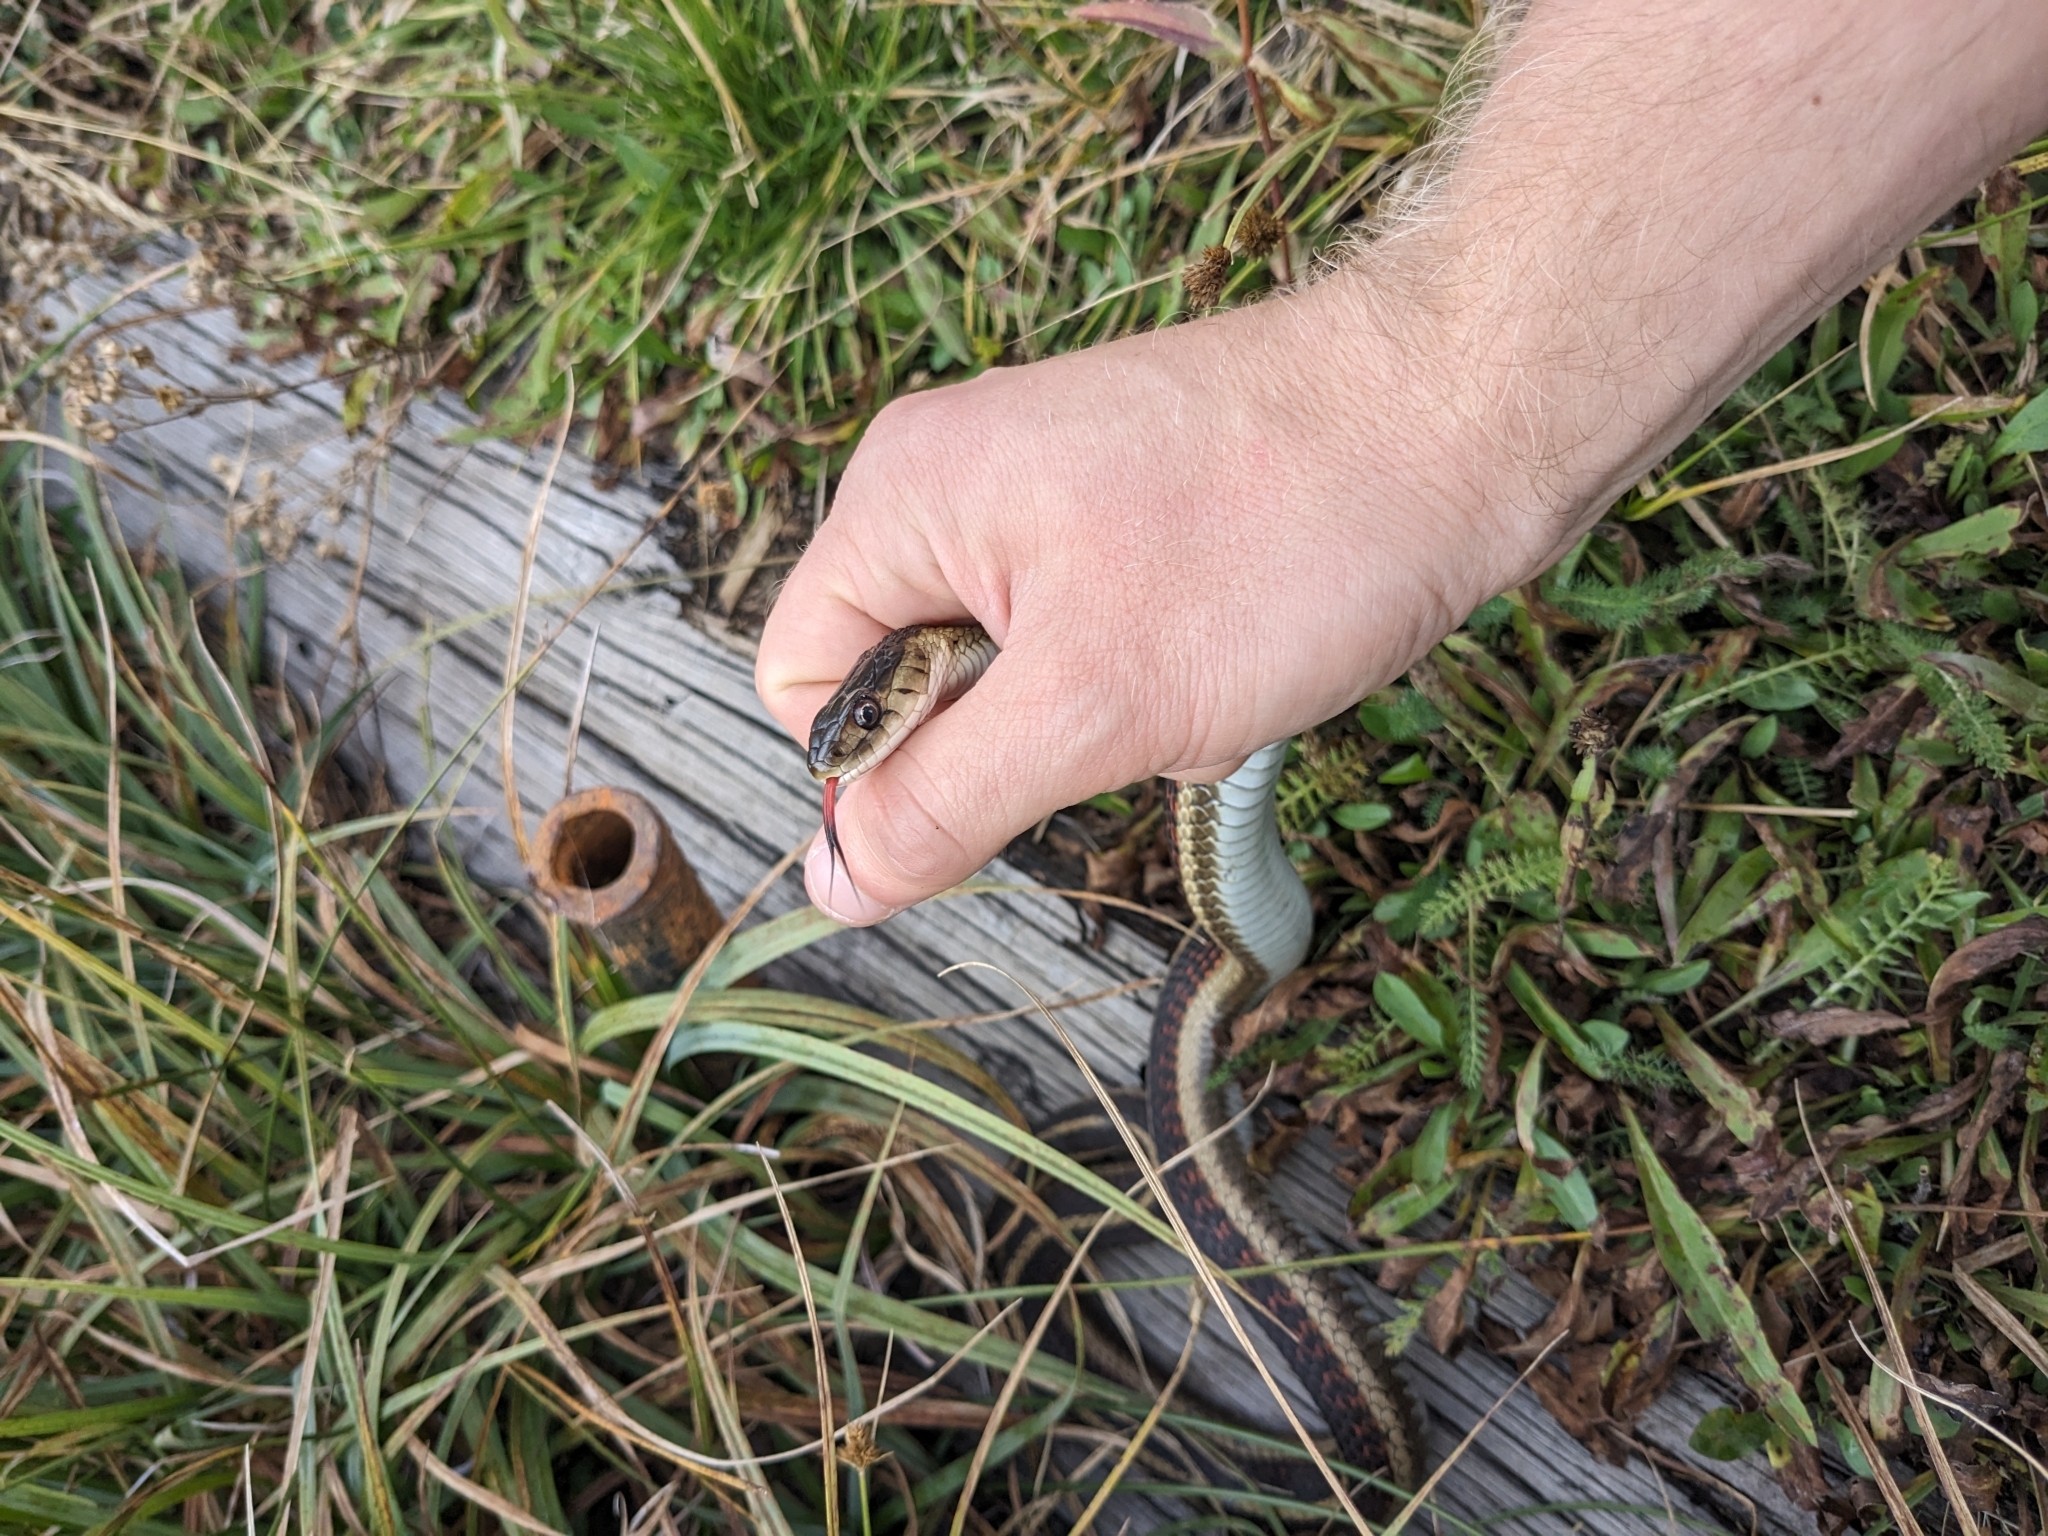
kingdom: Animalia
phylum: Chordata
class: Squamata
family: Colubridae
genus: Thamnophis
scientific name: Thamnophis sirtalis
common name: Common garter snake
